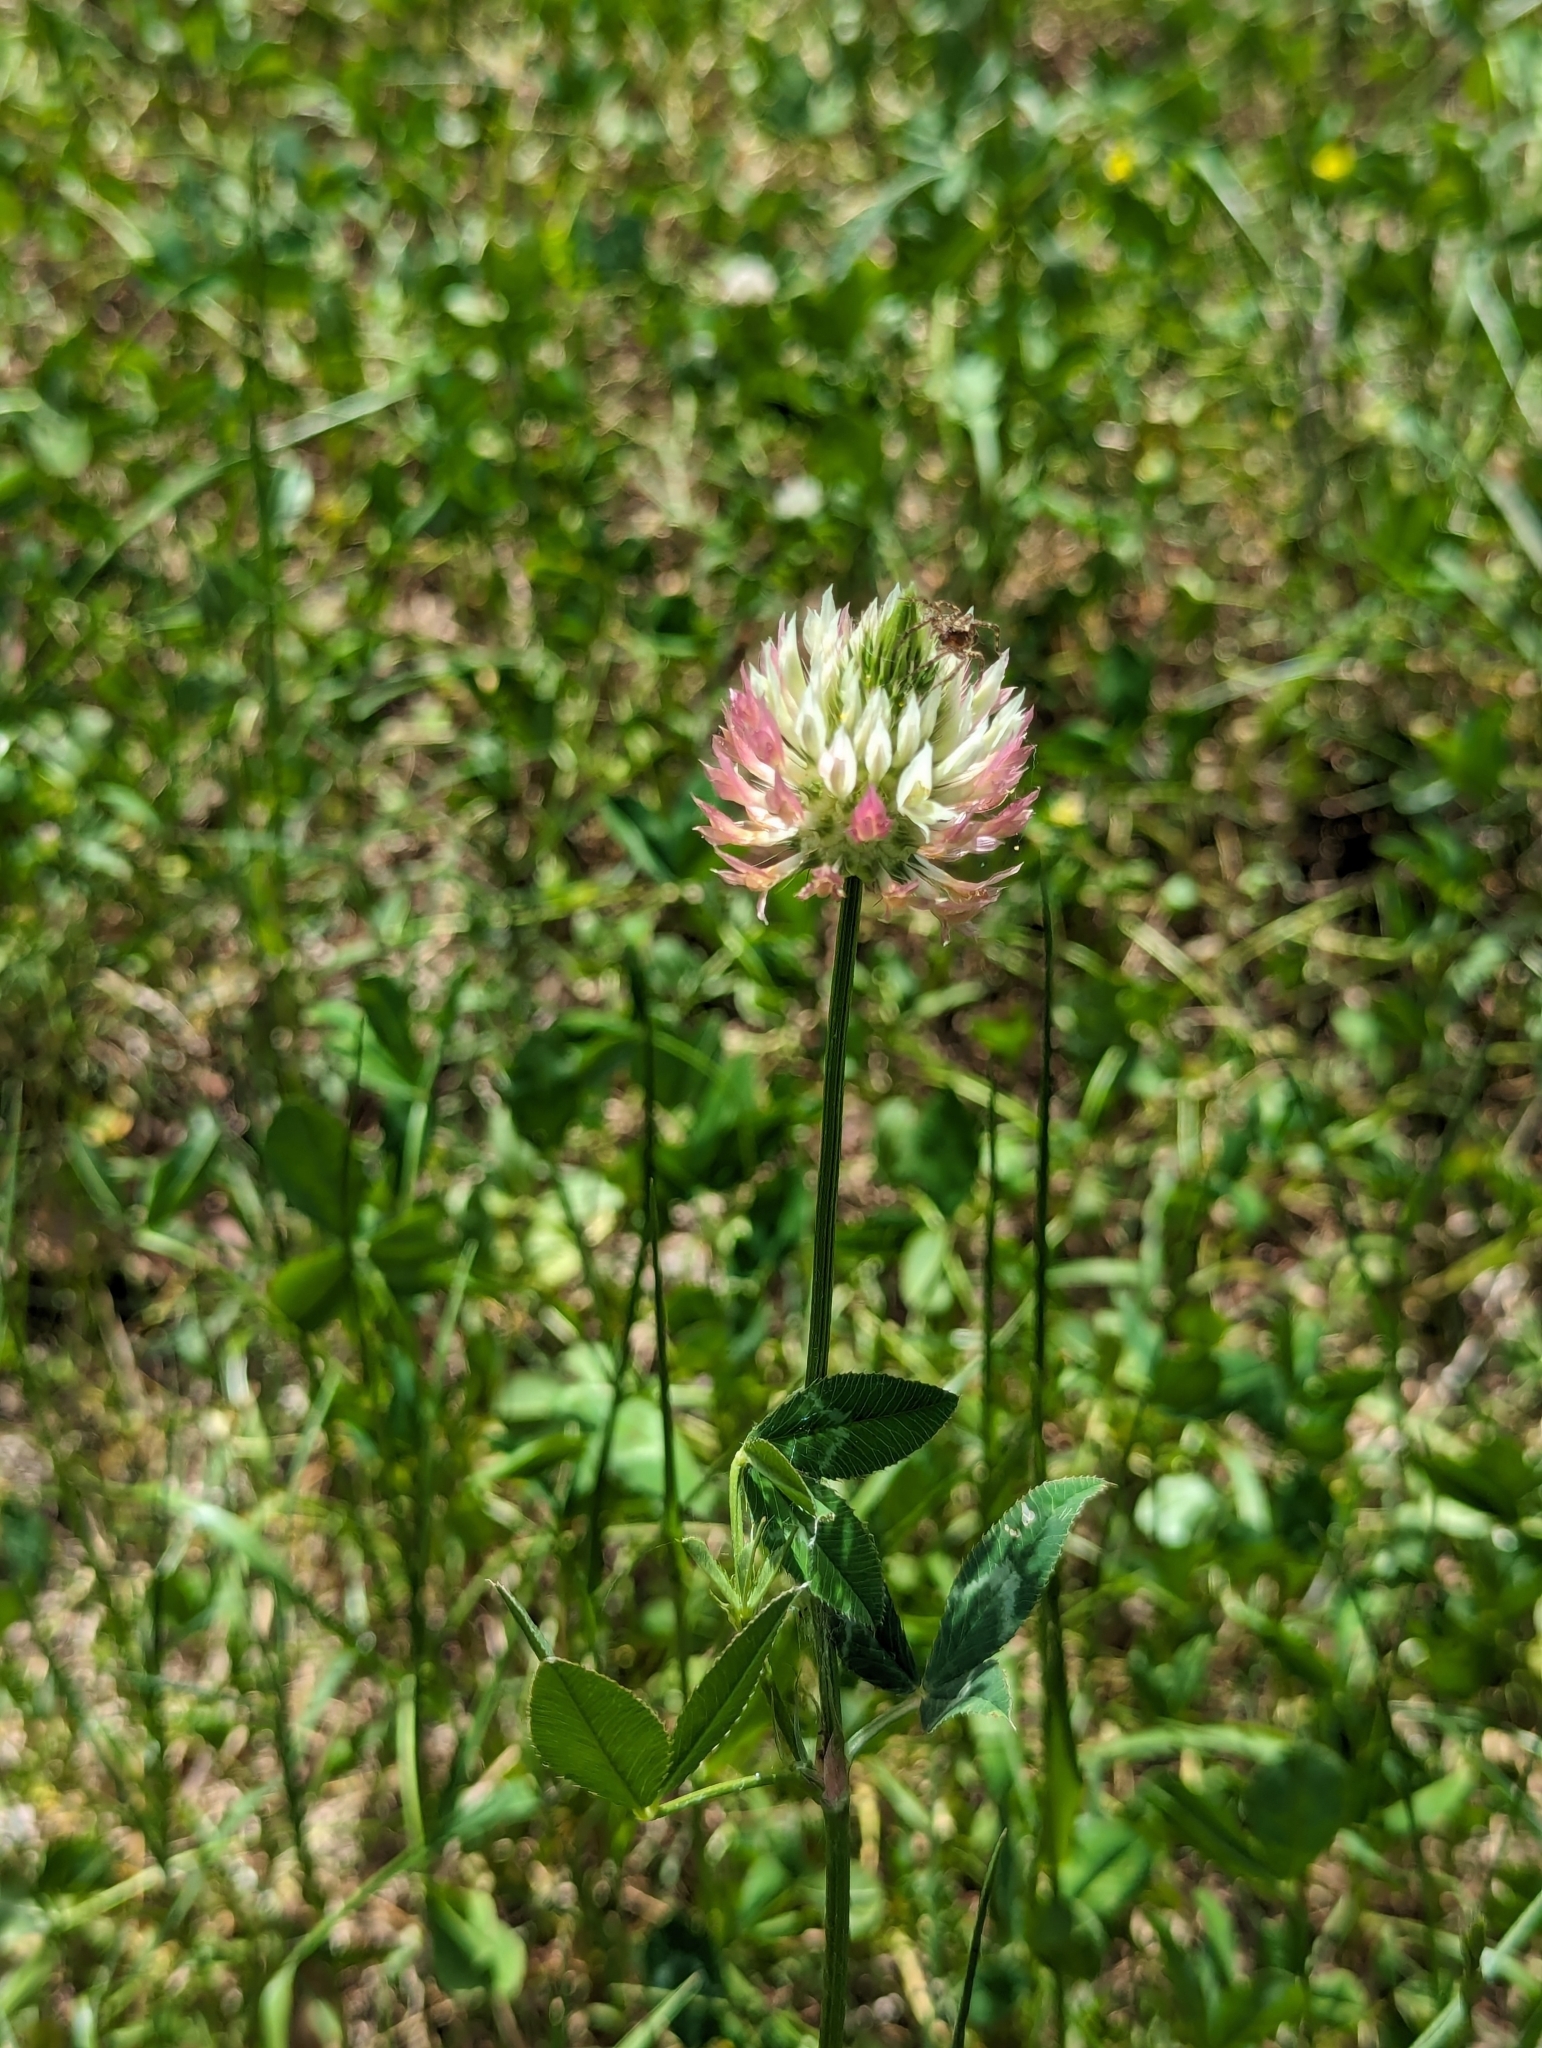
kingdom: Plantae
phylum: Tracheophyta
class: Magnoliopsida
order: Fabales
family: Fabaceae
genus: Trifolium
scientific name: Trifolium vesiculosum
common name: Arrowleaf clover
